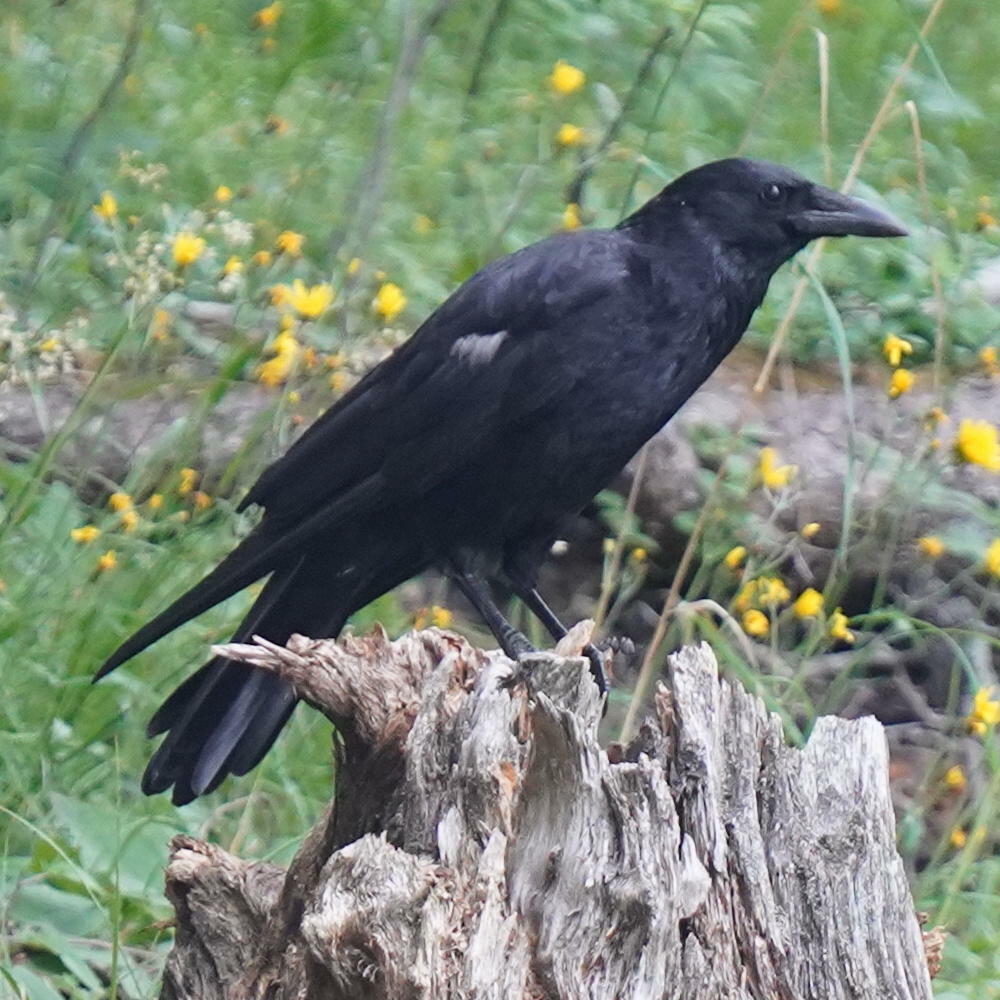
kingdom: Animalia
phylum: Chordata
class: Aves
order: Passeriformes
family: Corvidae
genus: Corvus
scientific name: Corvus corone
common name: Carrion crow
